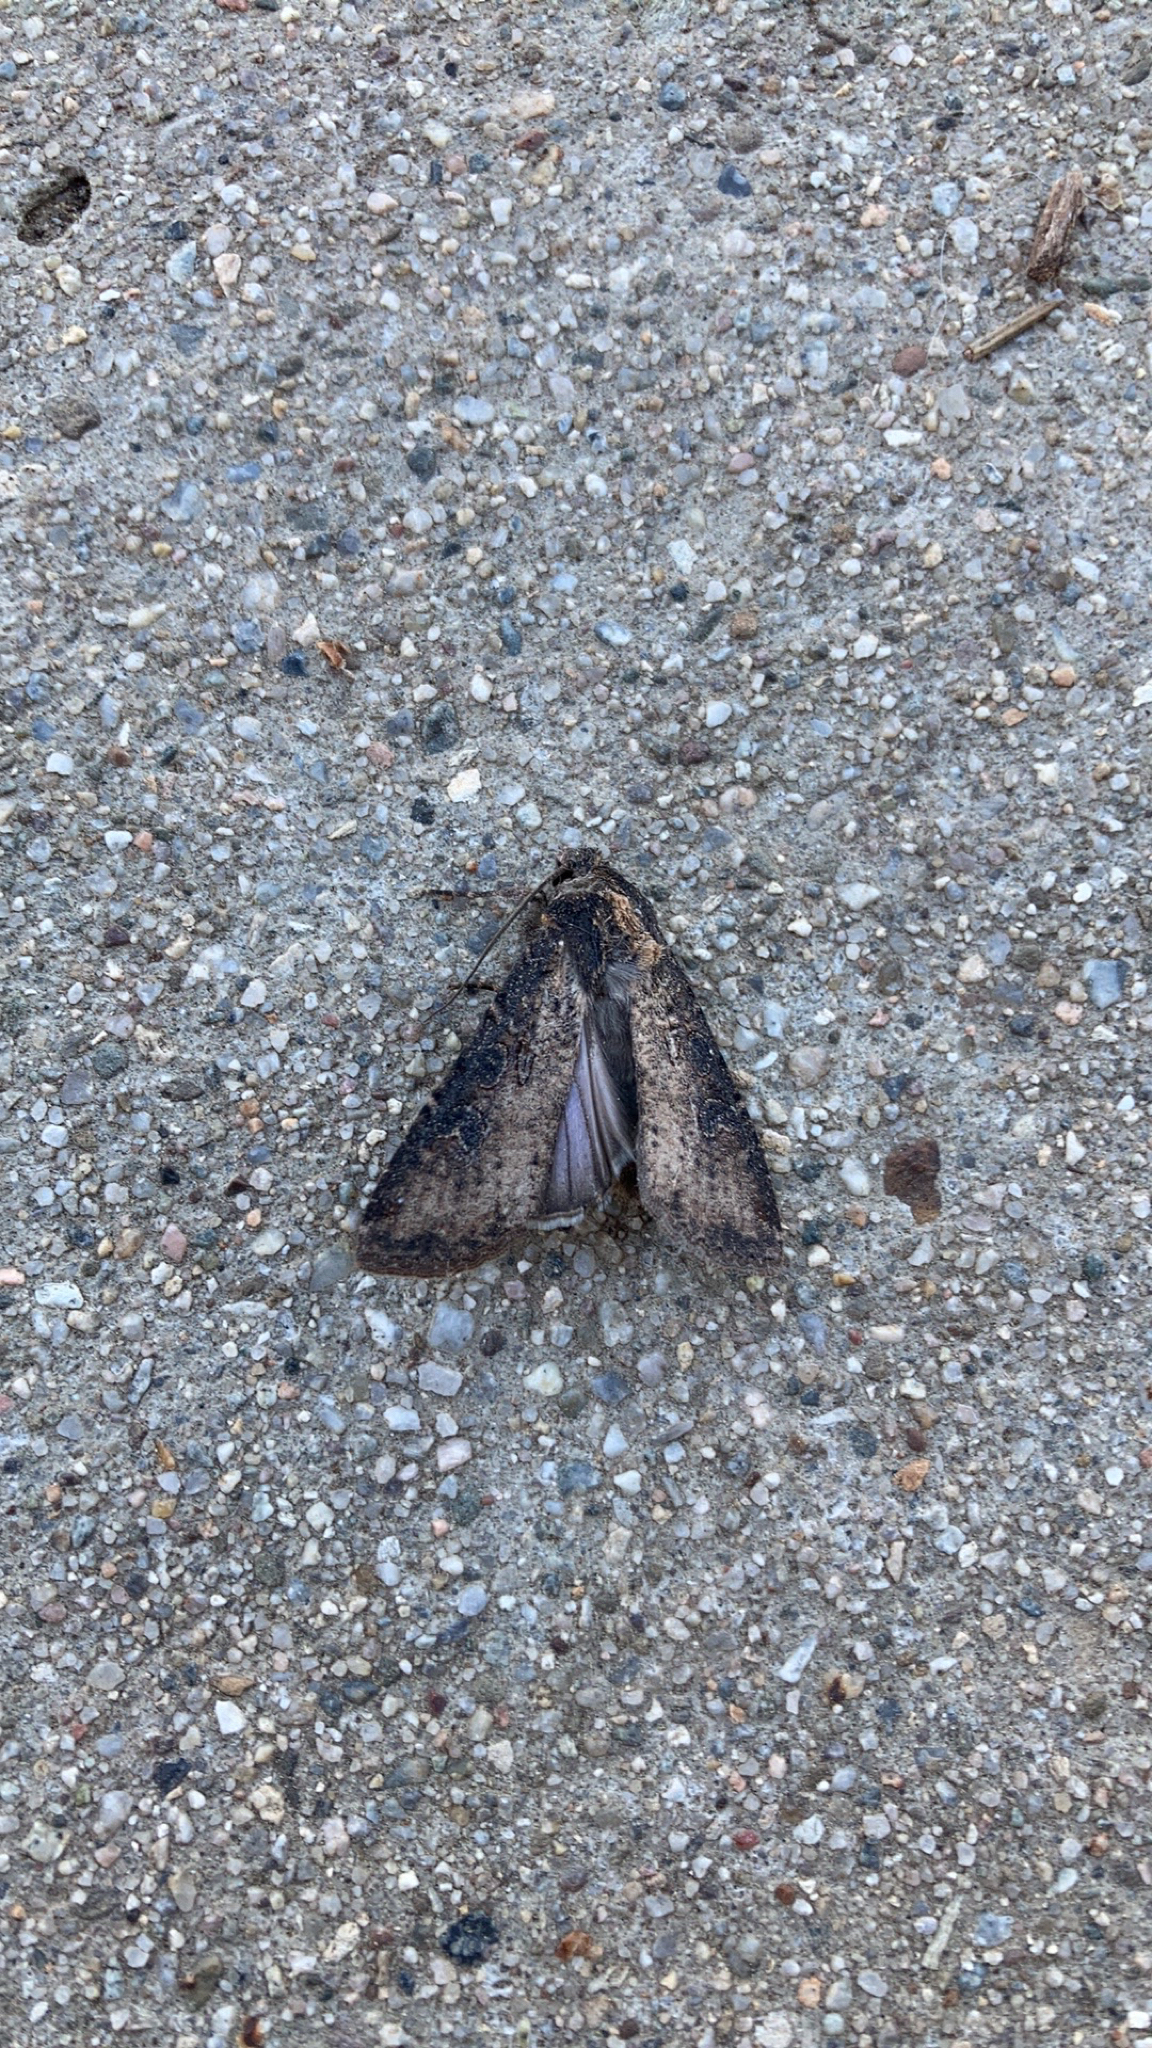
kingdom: Animalia
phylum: Arthropoda
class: Insecta
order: Lepidoptera
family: Noctuidae
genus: Peridroma
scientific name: Peridroma saucia
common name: Pearly underwing
